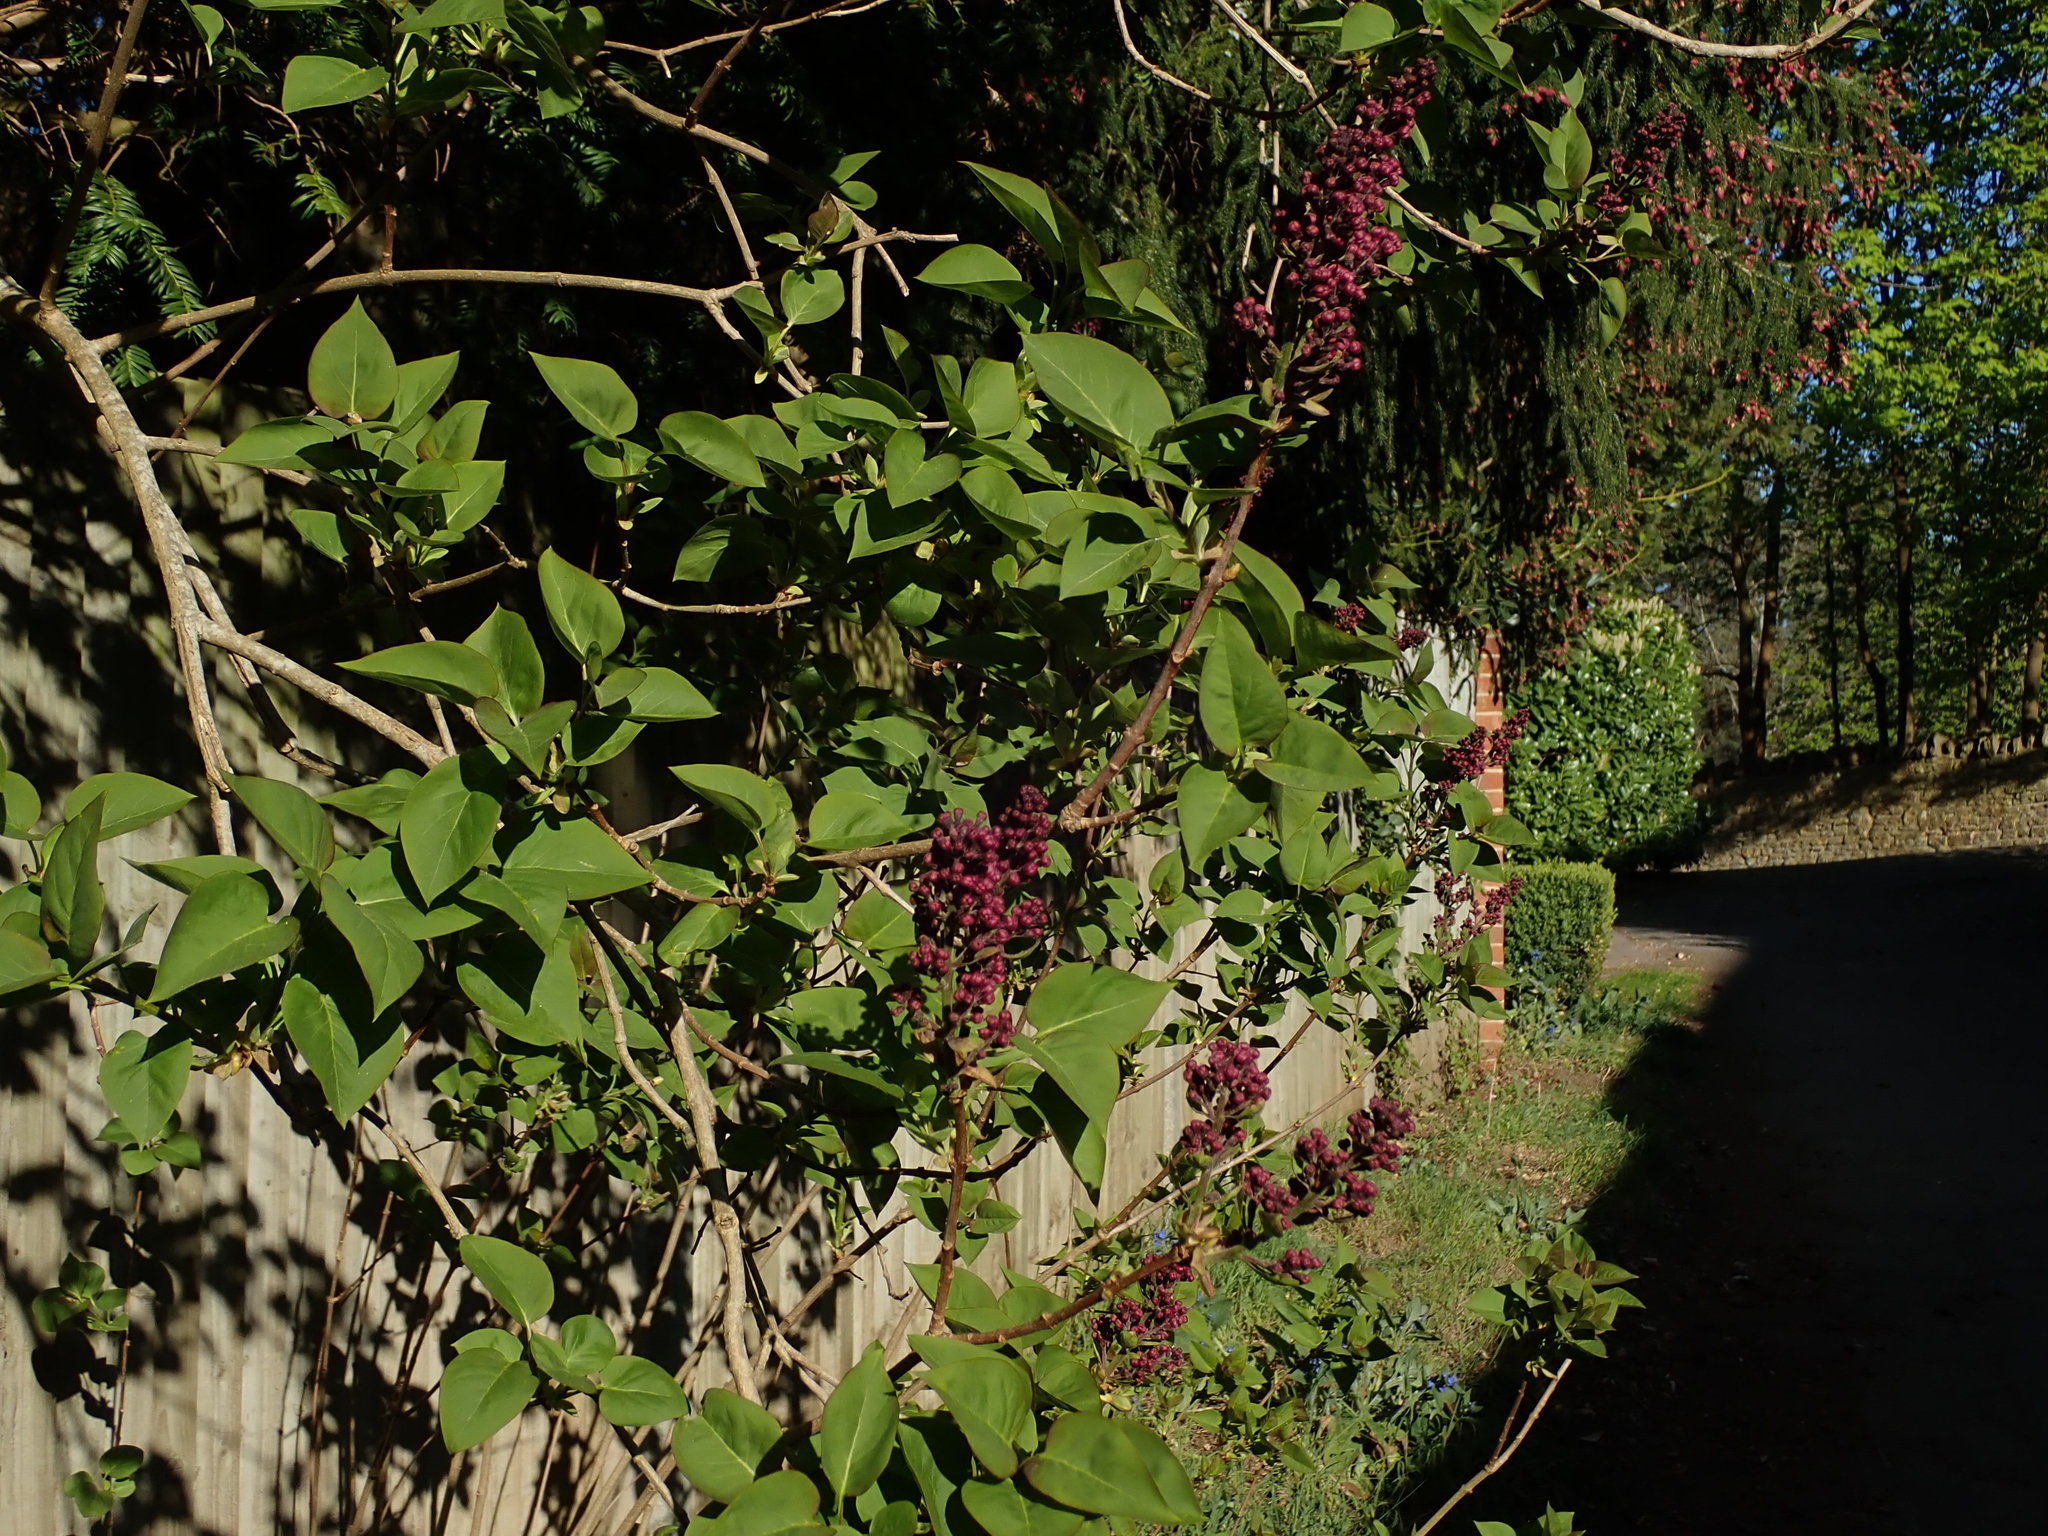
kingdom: Plantae
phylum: Tracheophyta
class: Magnoliopsida
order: Lamiales
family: Oleaceae
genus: Syringa
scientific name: Syringa vulgaris
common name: Common lilac
